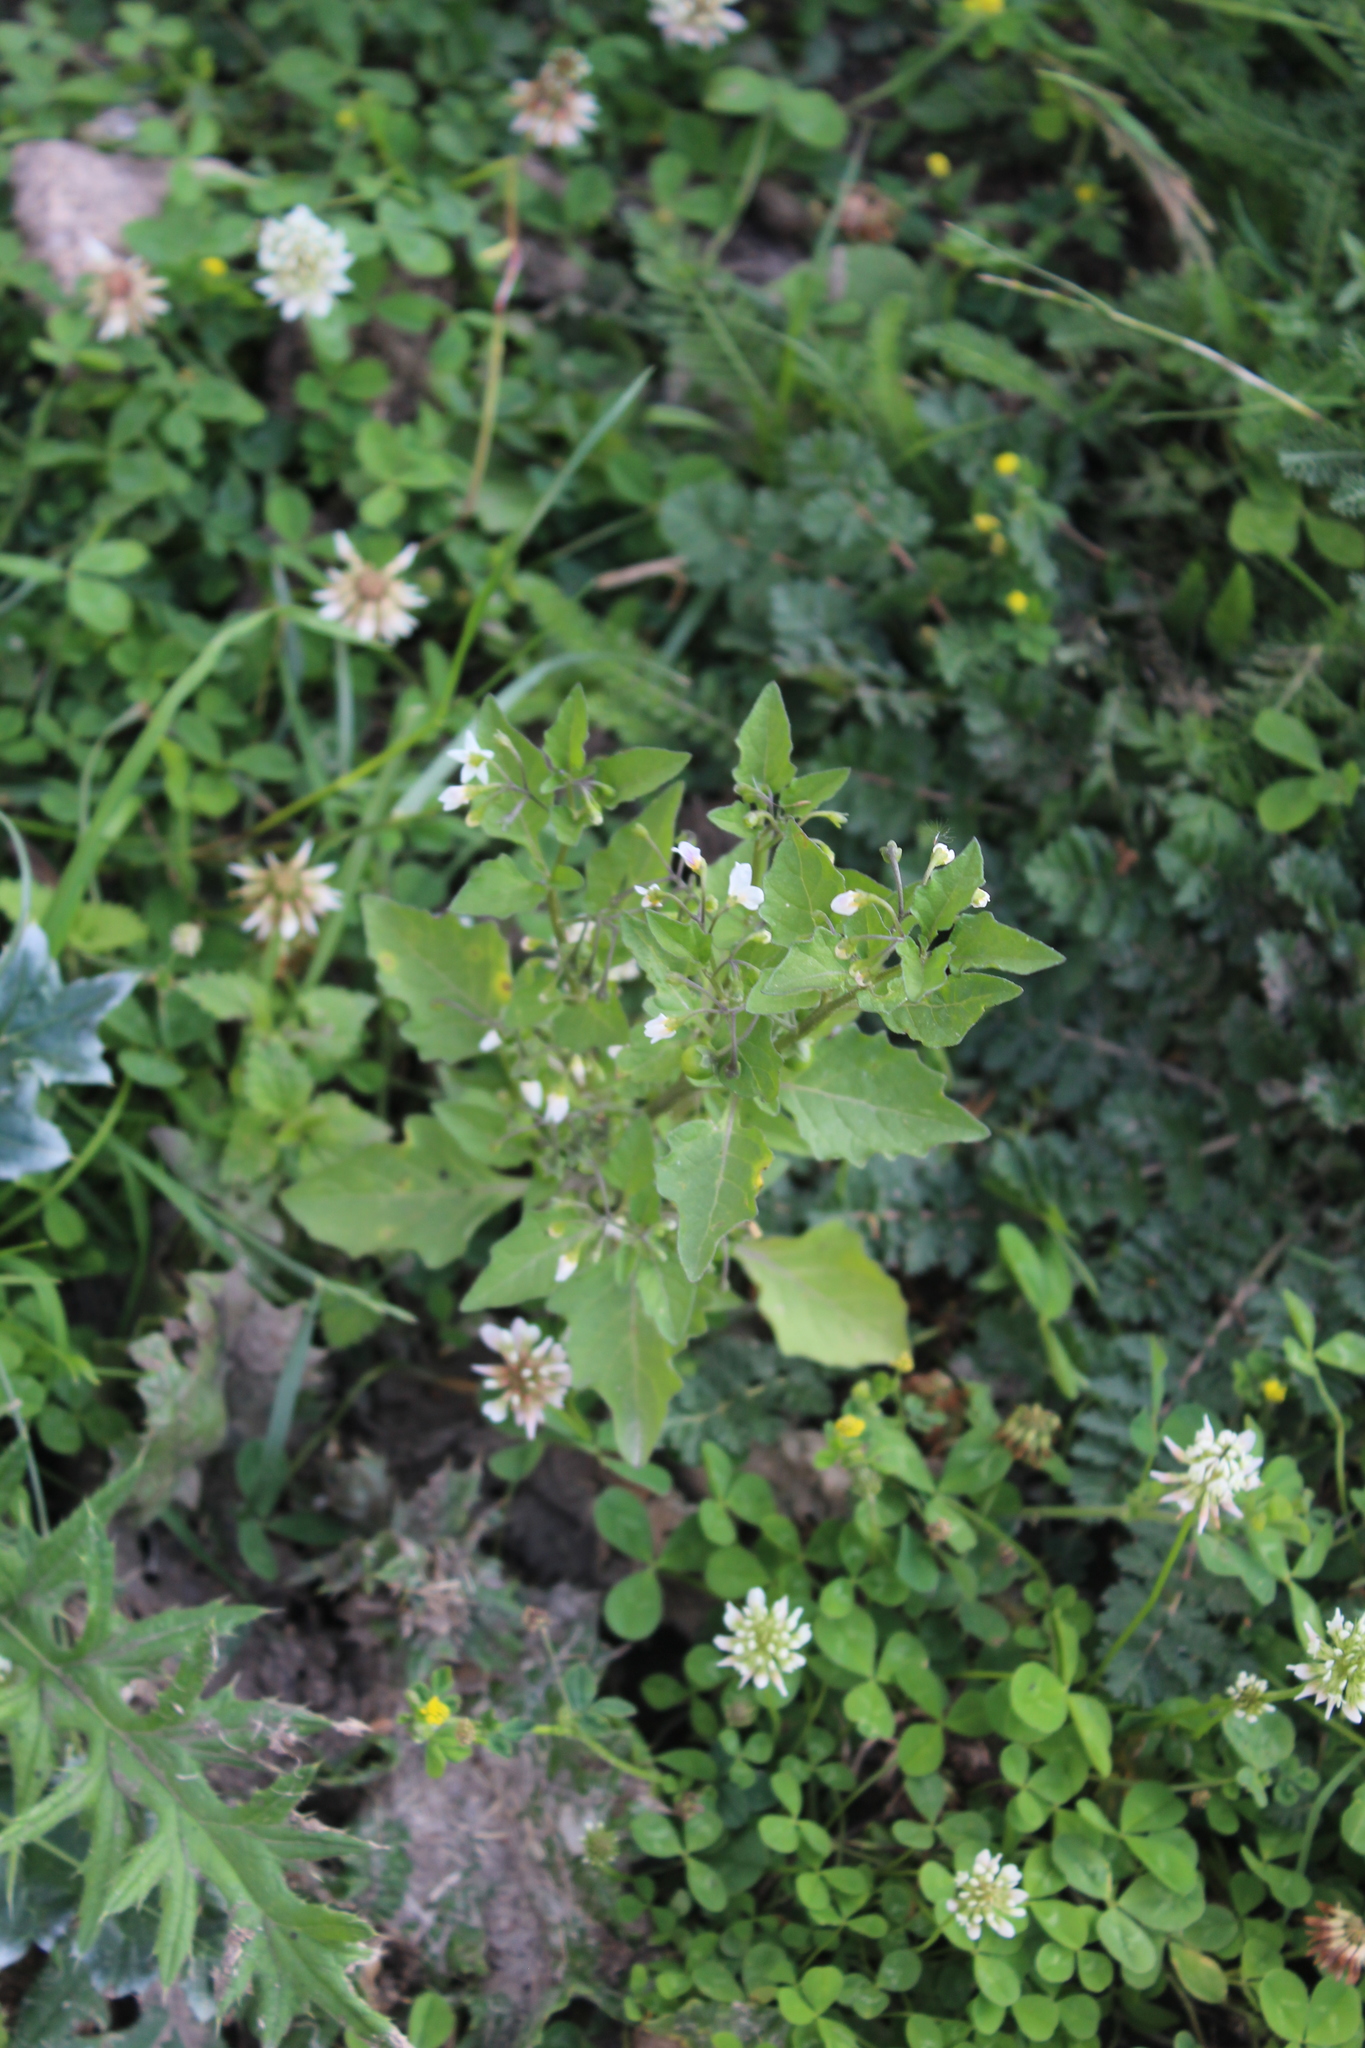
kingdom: Plantae
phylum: Tracheophyta
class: Magnoliopsida
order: Solanales
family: Solanaceae
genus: Solanum
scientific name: Solanum nigrum
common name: Black nightshade
